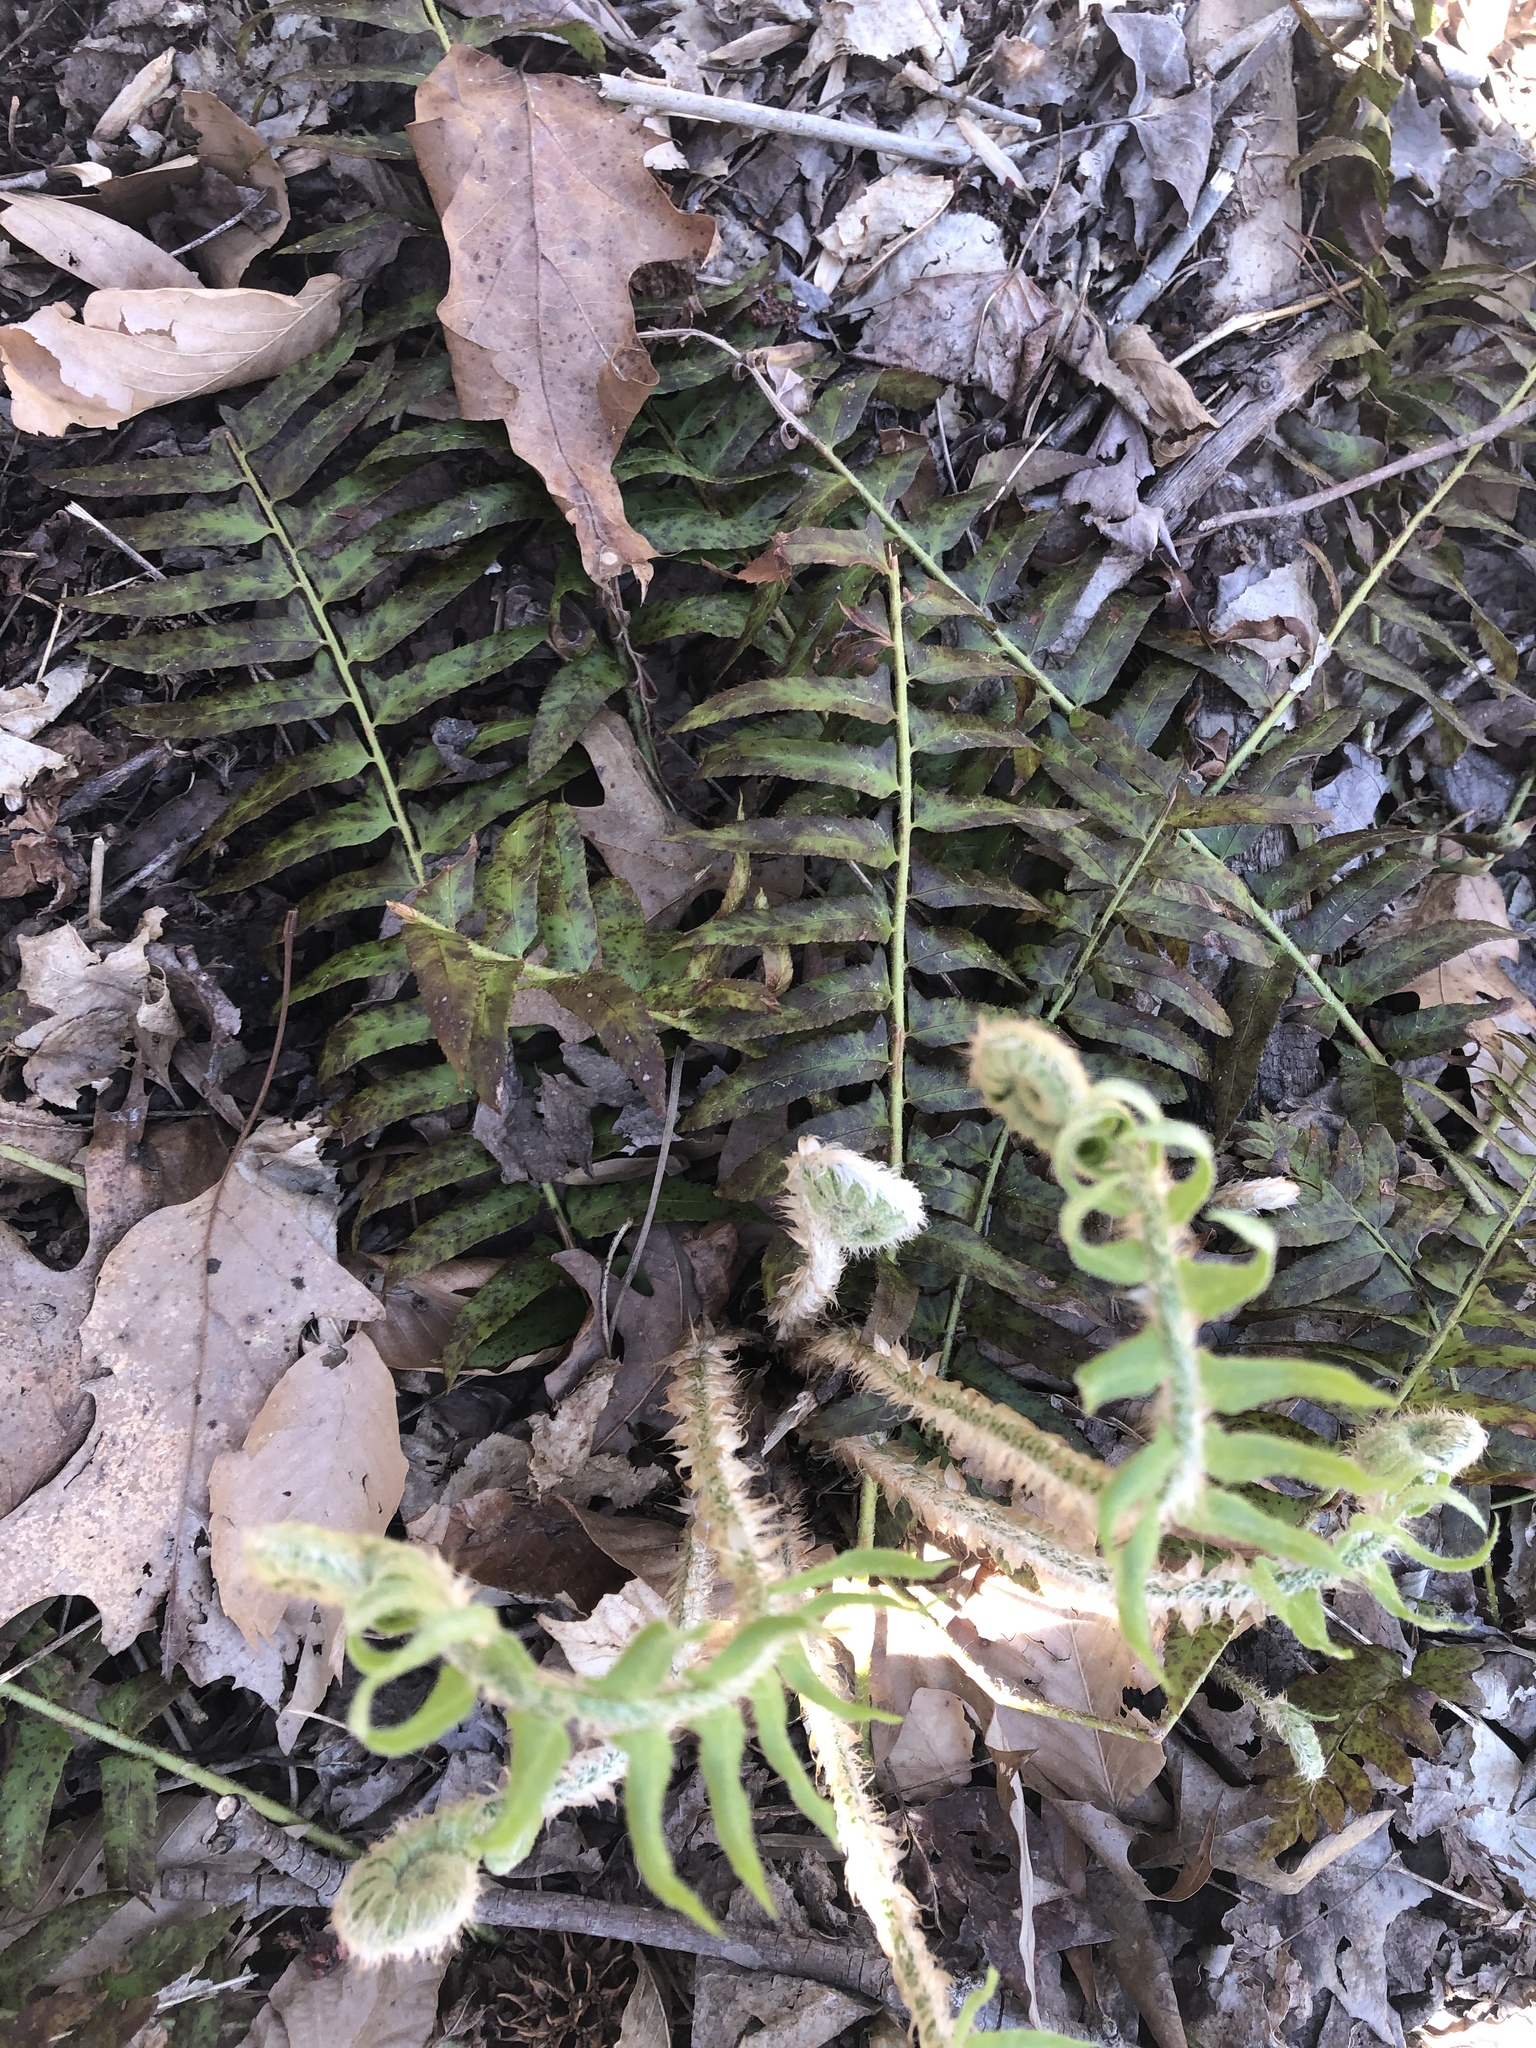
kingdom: Plantae
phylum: Tracheophyta
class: Polypodiopsida
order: Polypodiales
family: Dryopteridaceae
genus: Polystichum
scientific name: Polystichum acrostichoides
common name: Christmas fern
